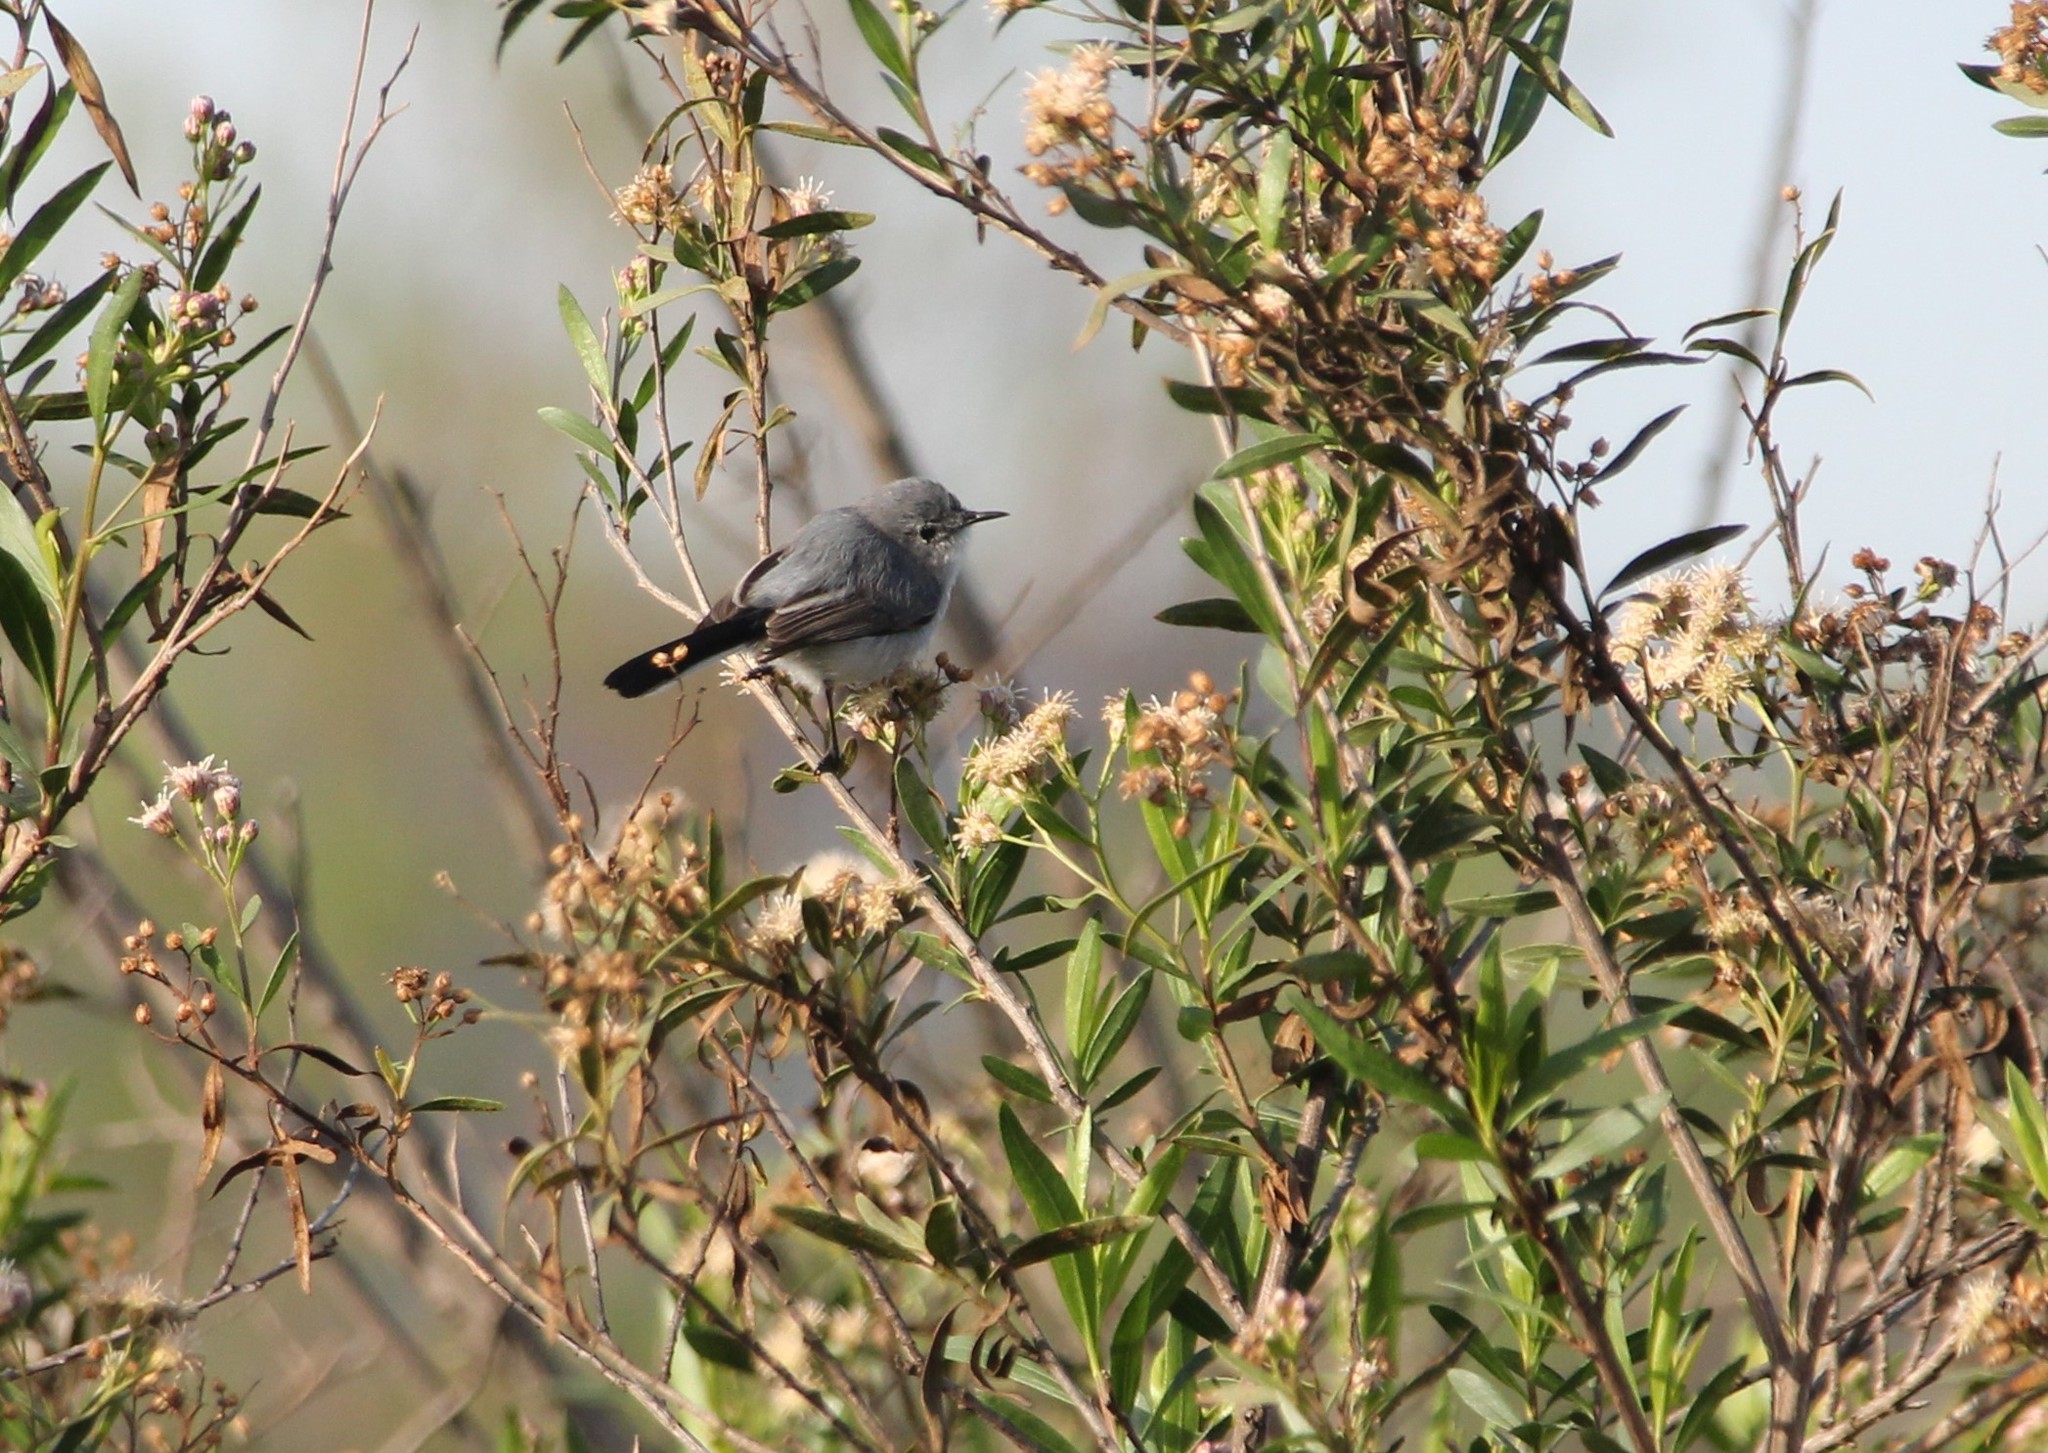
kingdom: Animalia
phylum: Chordata
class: Aves
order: Passeriformes
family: Polioptilidae
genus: Polioptila
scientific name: Polioptila caerulea
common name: Blue-gray gnatcatcher
